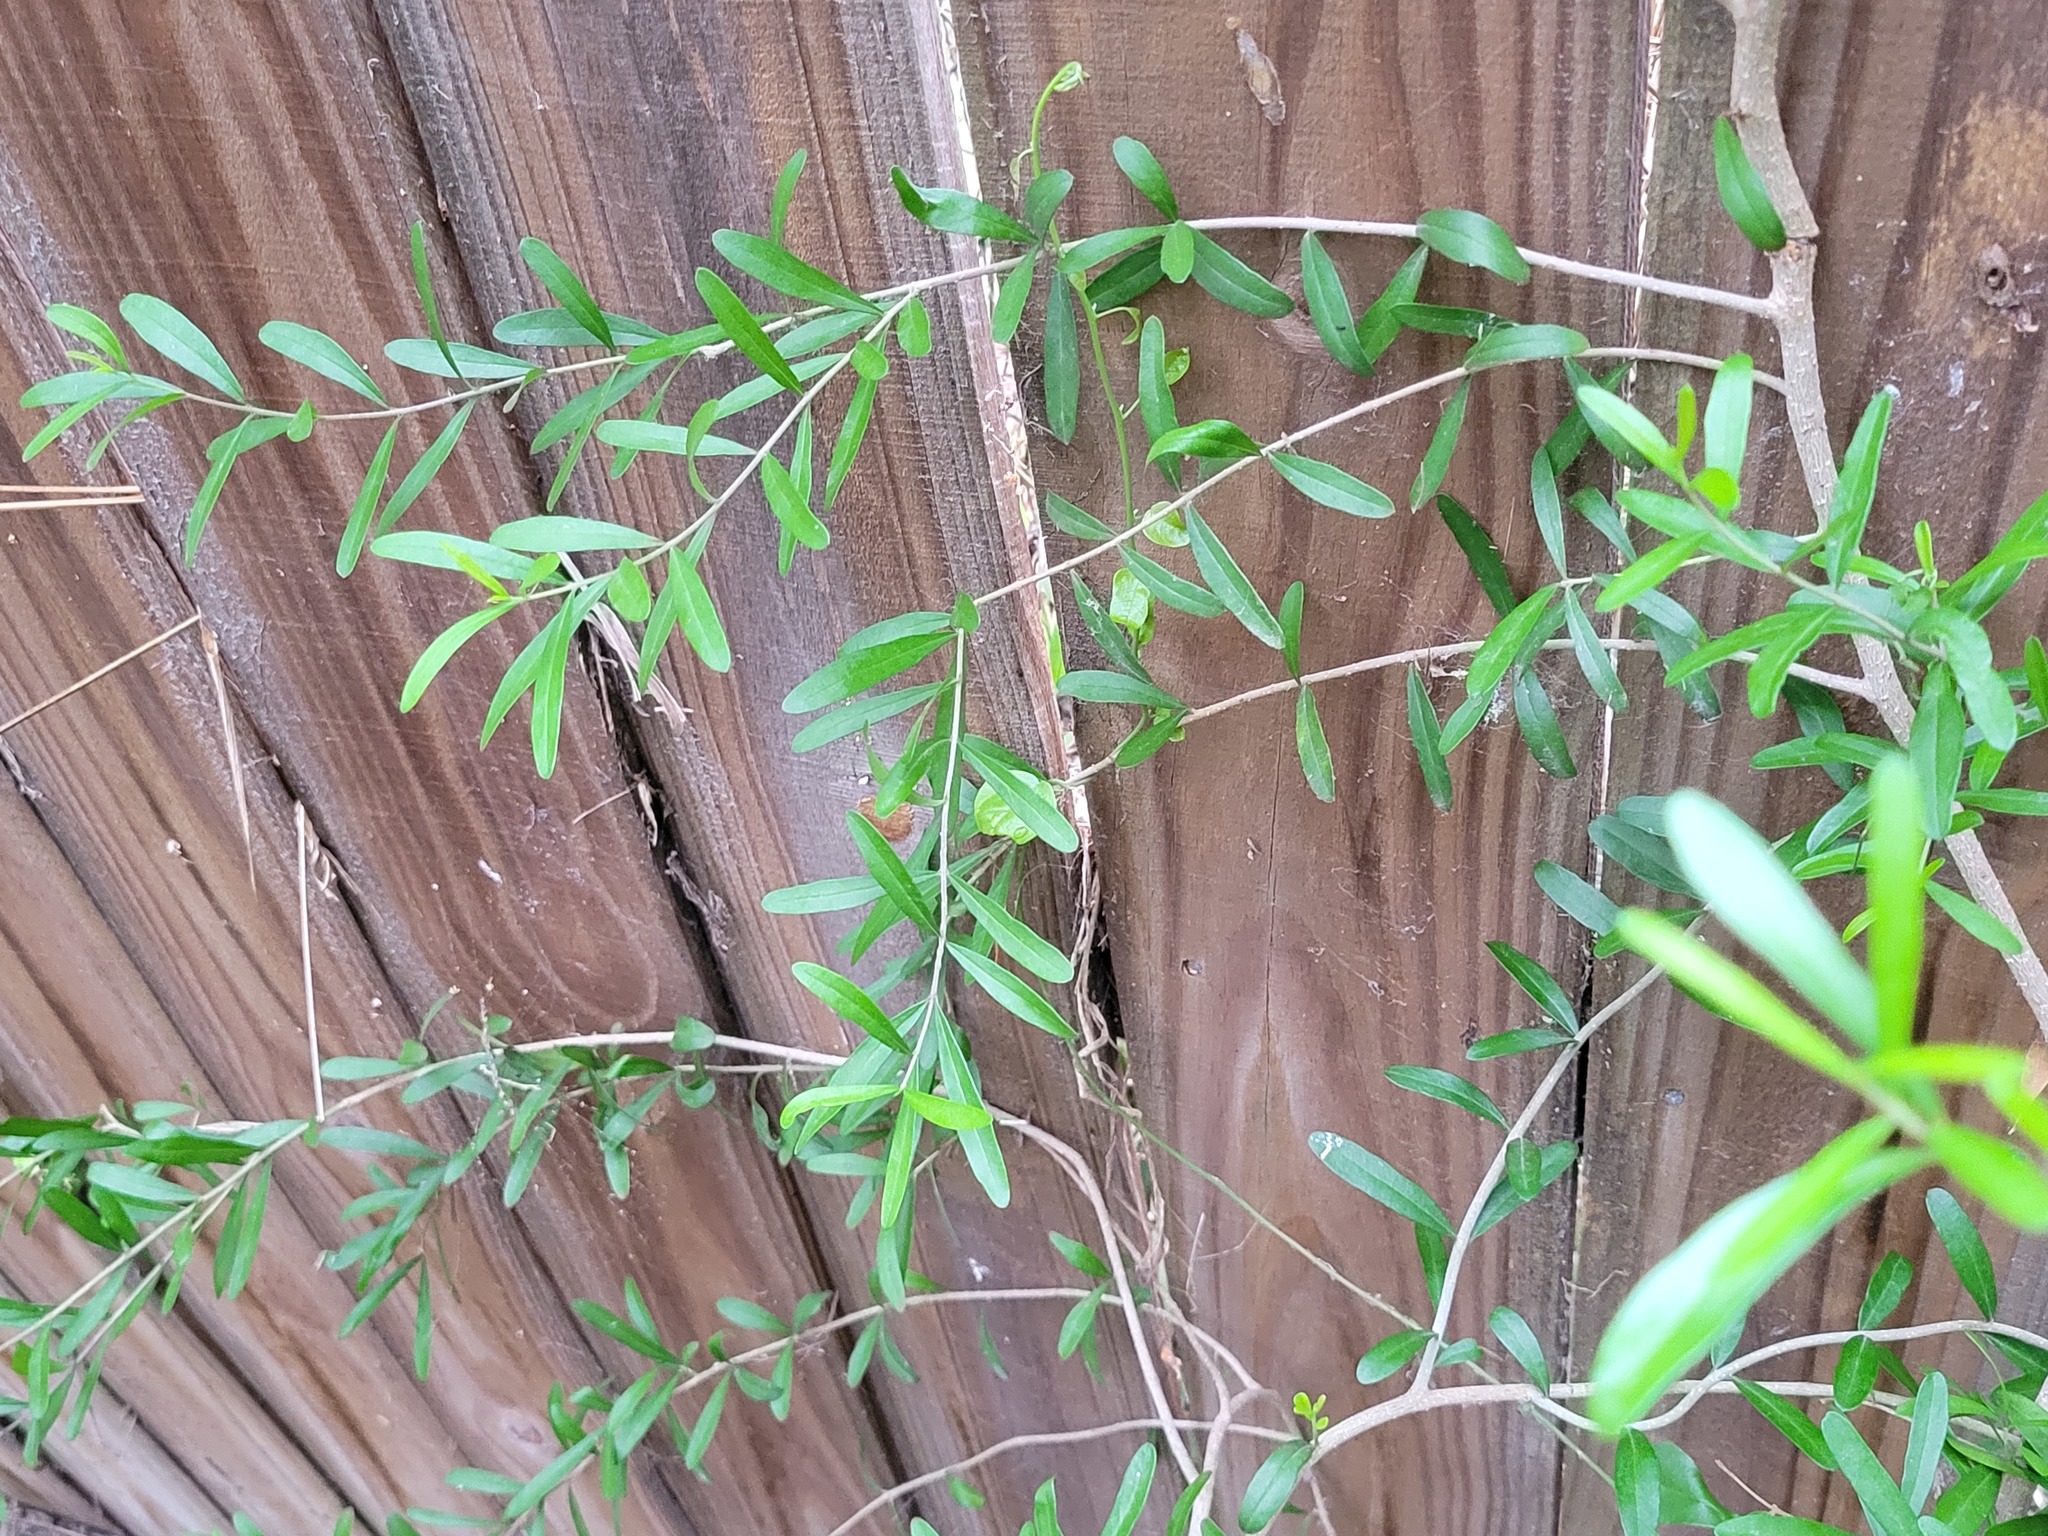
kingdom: Plantae
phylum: Tracheophyta
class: Magnoliopsida
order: Lamiales
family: Oleaceae
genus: Forestiera
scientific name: Forestiera angustifolia
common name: Elbowbush
